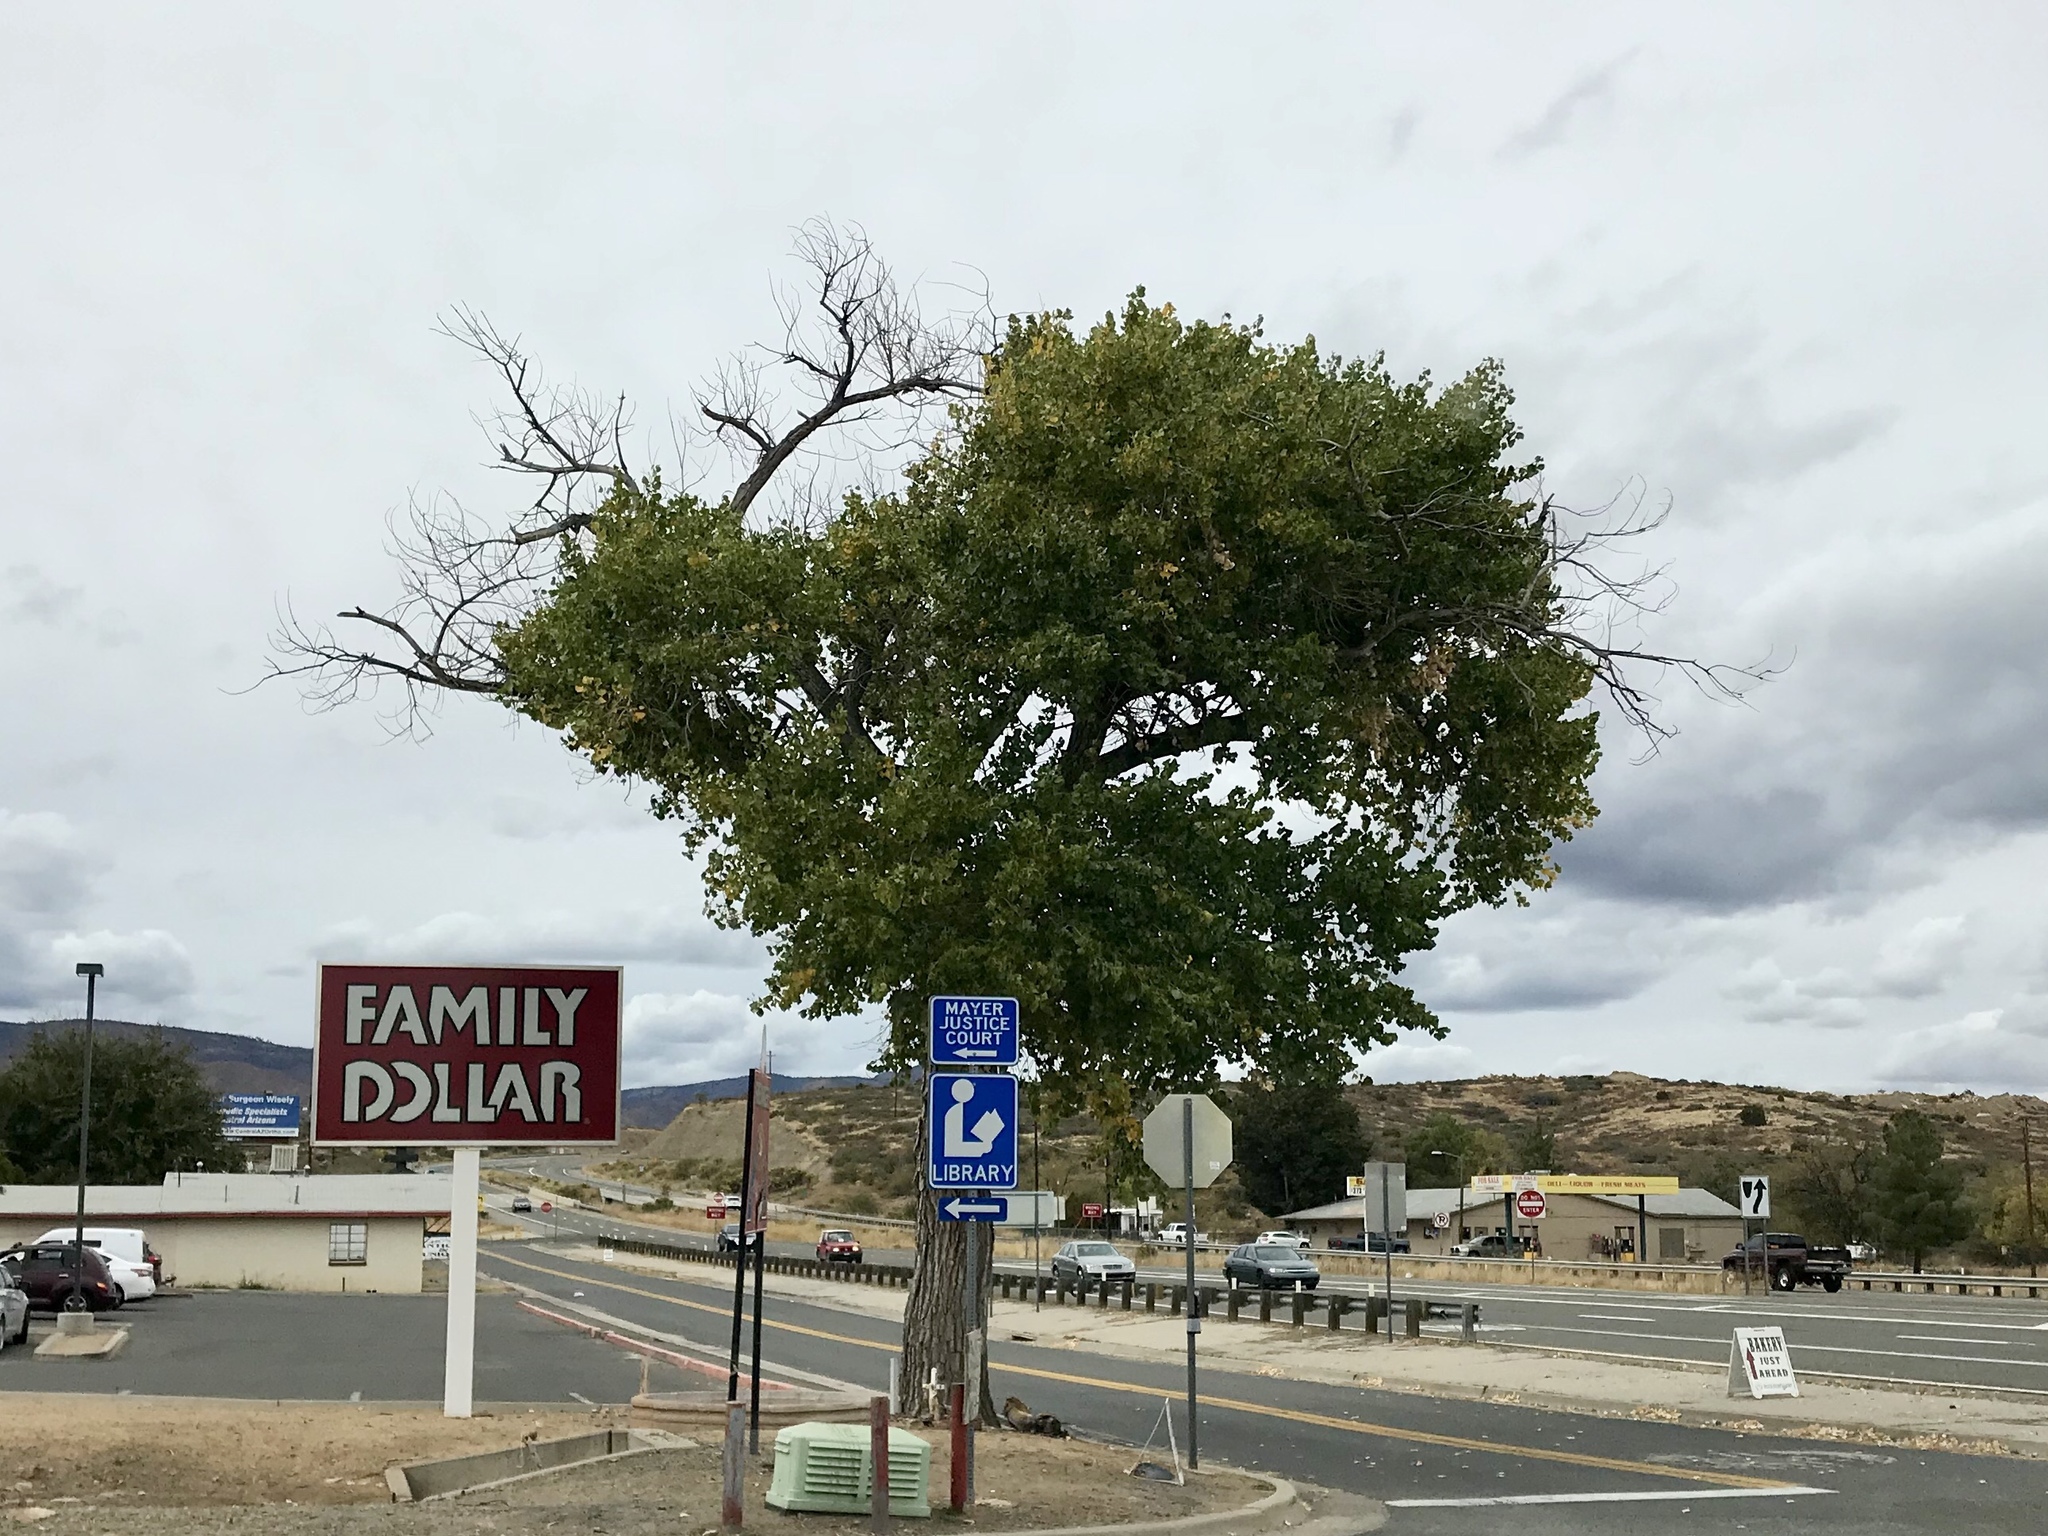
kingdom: Plantae
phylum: Tracheophyta
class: Magnoliopsida
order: Malpighiales
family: Salicaceae
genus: Populus
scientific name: Populus fremontii
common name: Fremont's cottonwood
